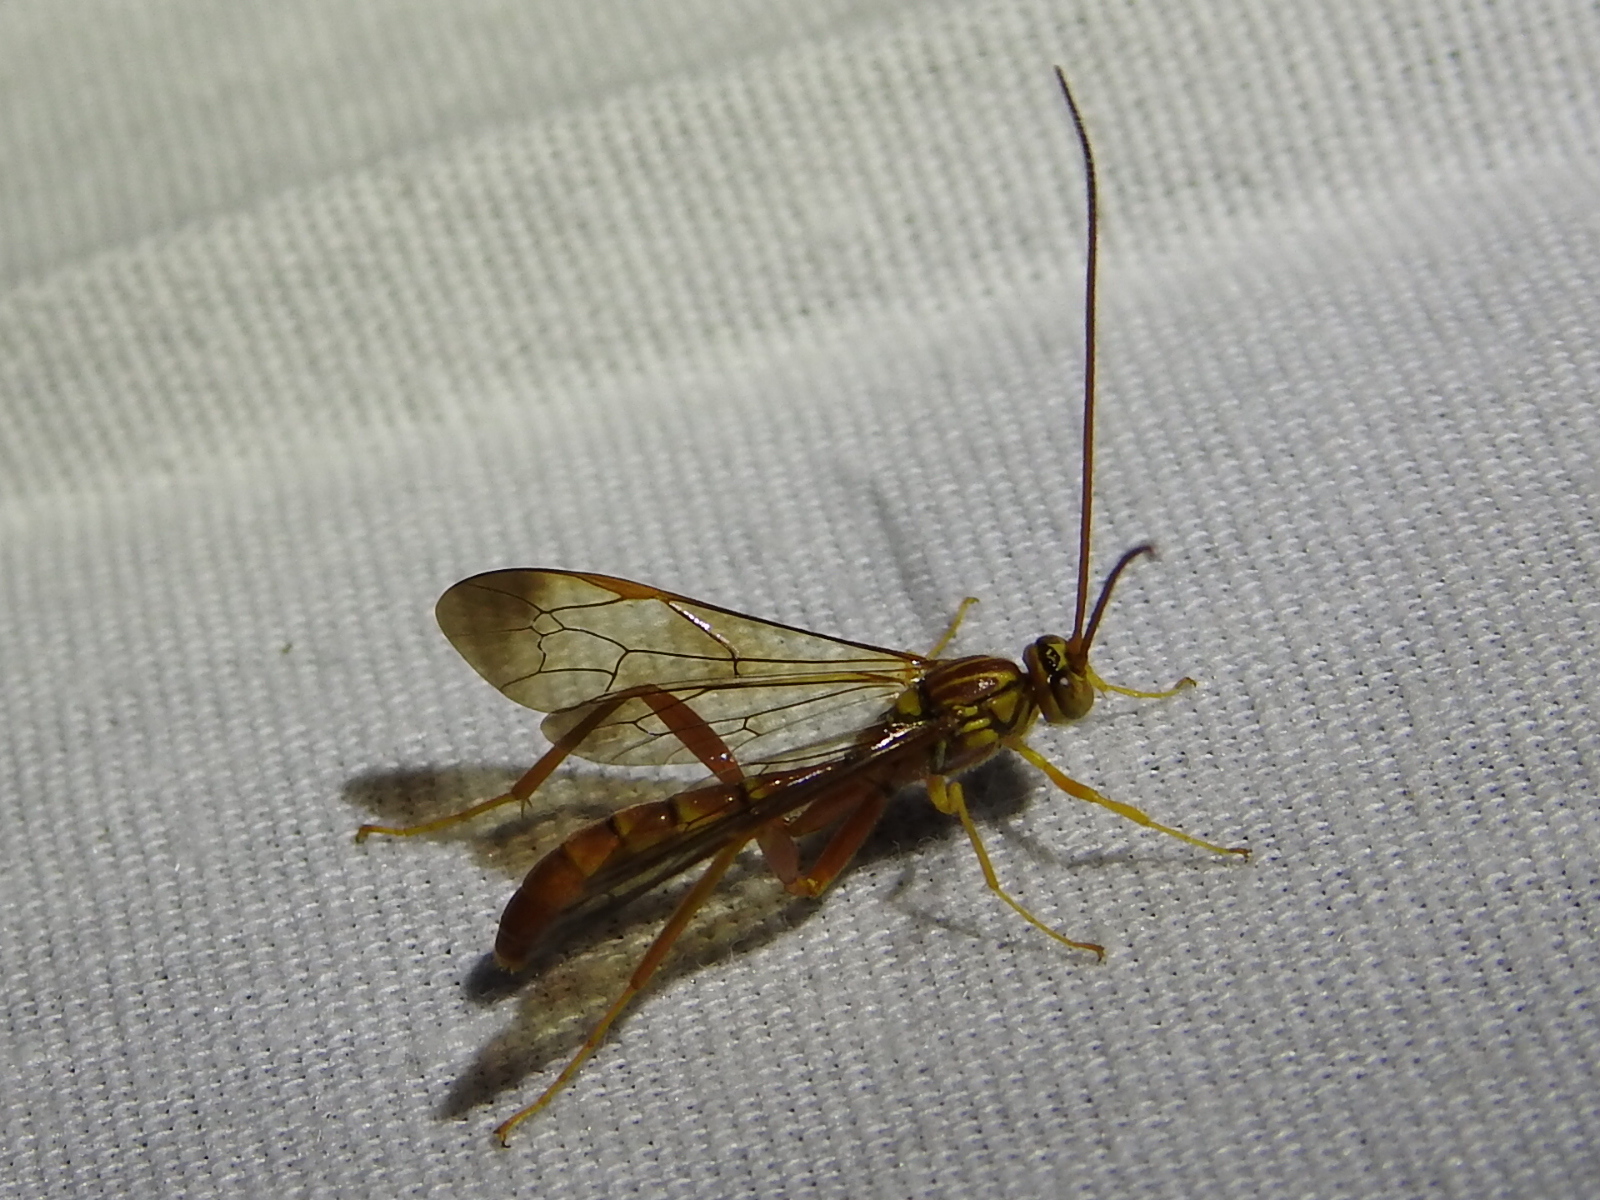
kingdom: Animalia
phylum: Arthropoda
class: Insecta
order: Hymenoptera
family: Ichneumonidae
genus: Labena
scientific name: Labena grallator
